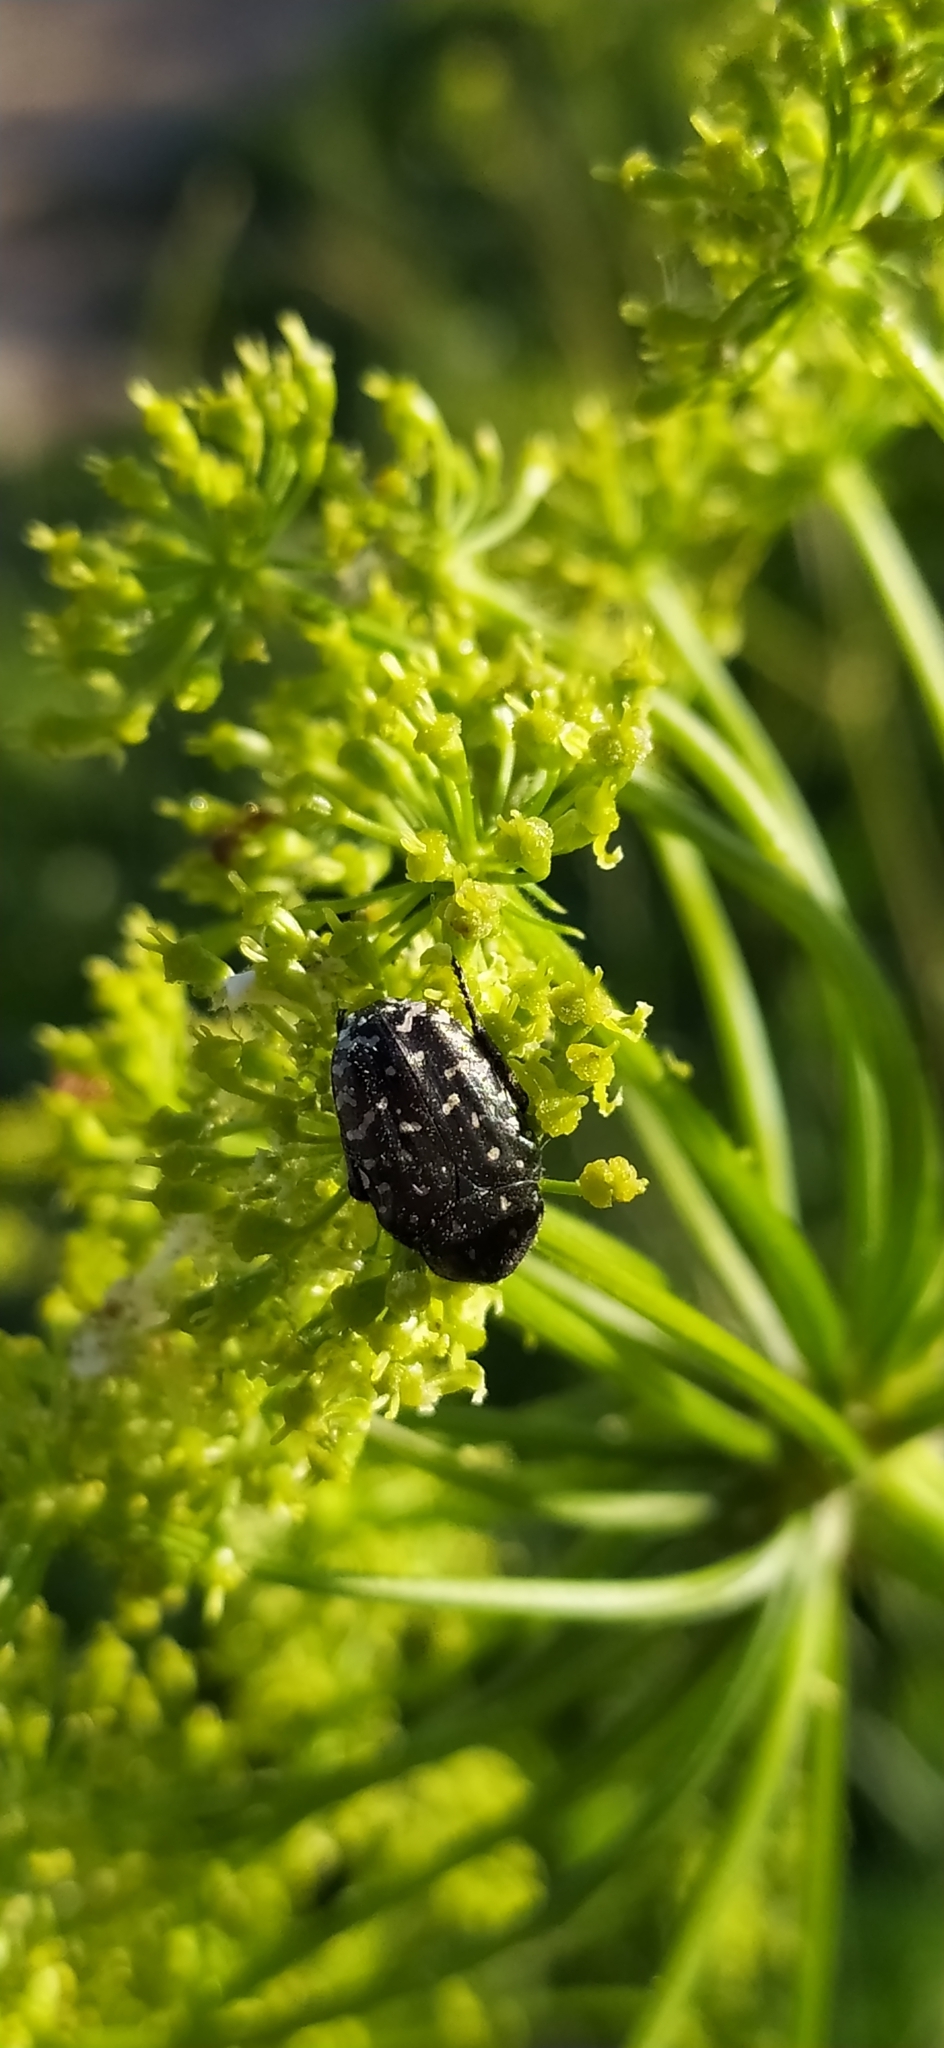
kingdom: Animalia
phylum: Arthropoda
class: Insecta
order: Coleoptera
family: Scarabaeidae
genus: Oxythyrea
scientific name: Oxythyrea funesta
